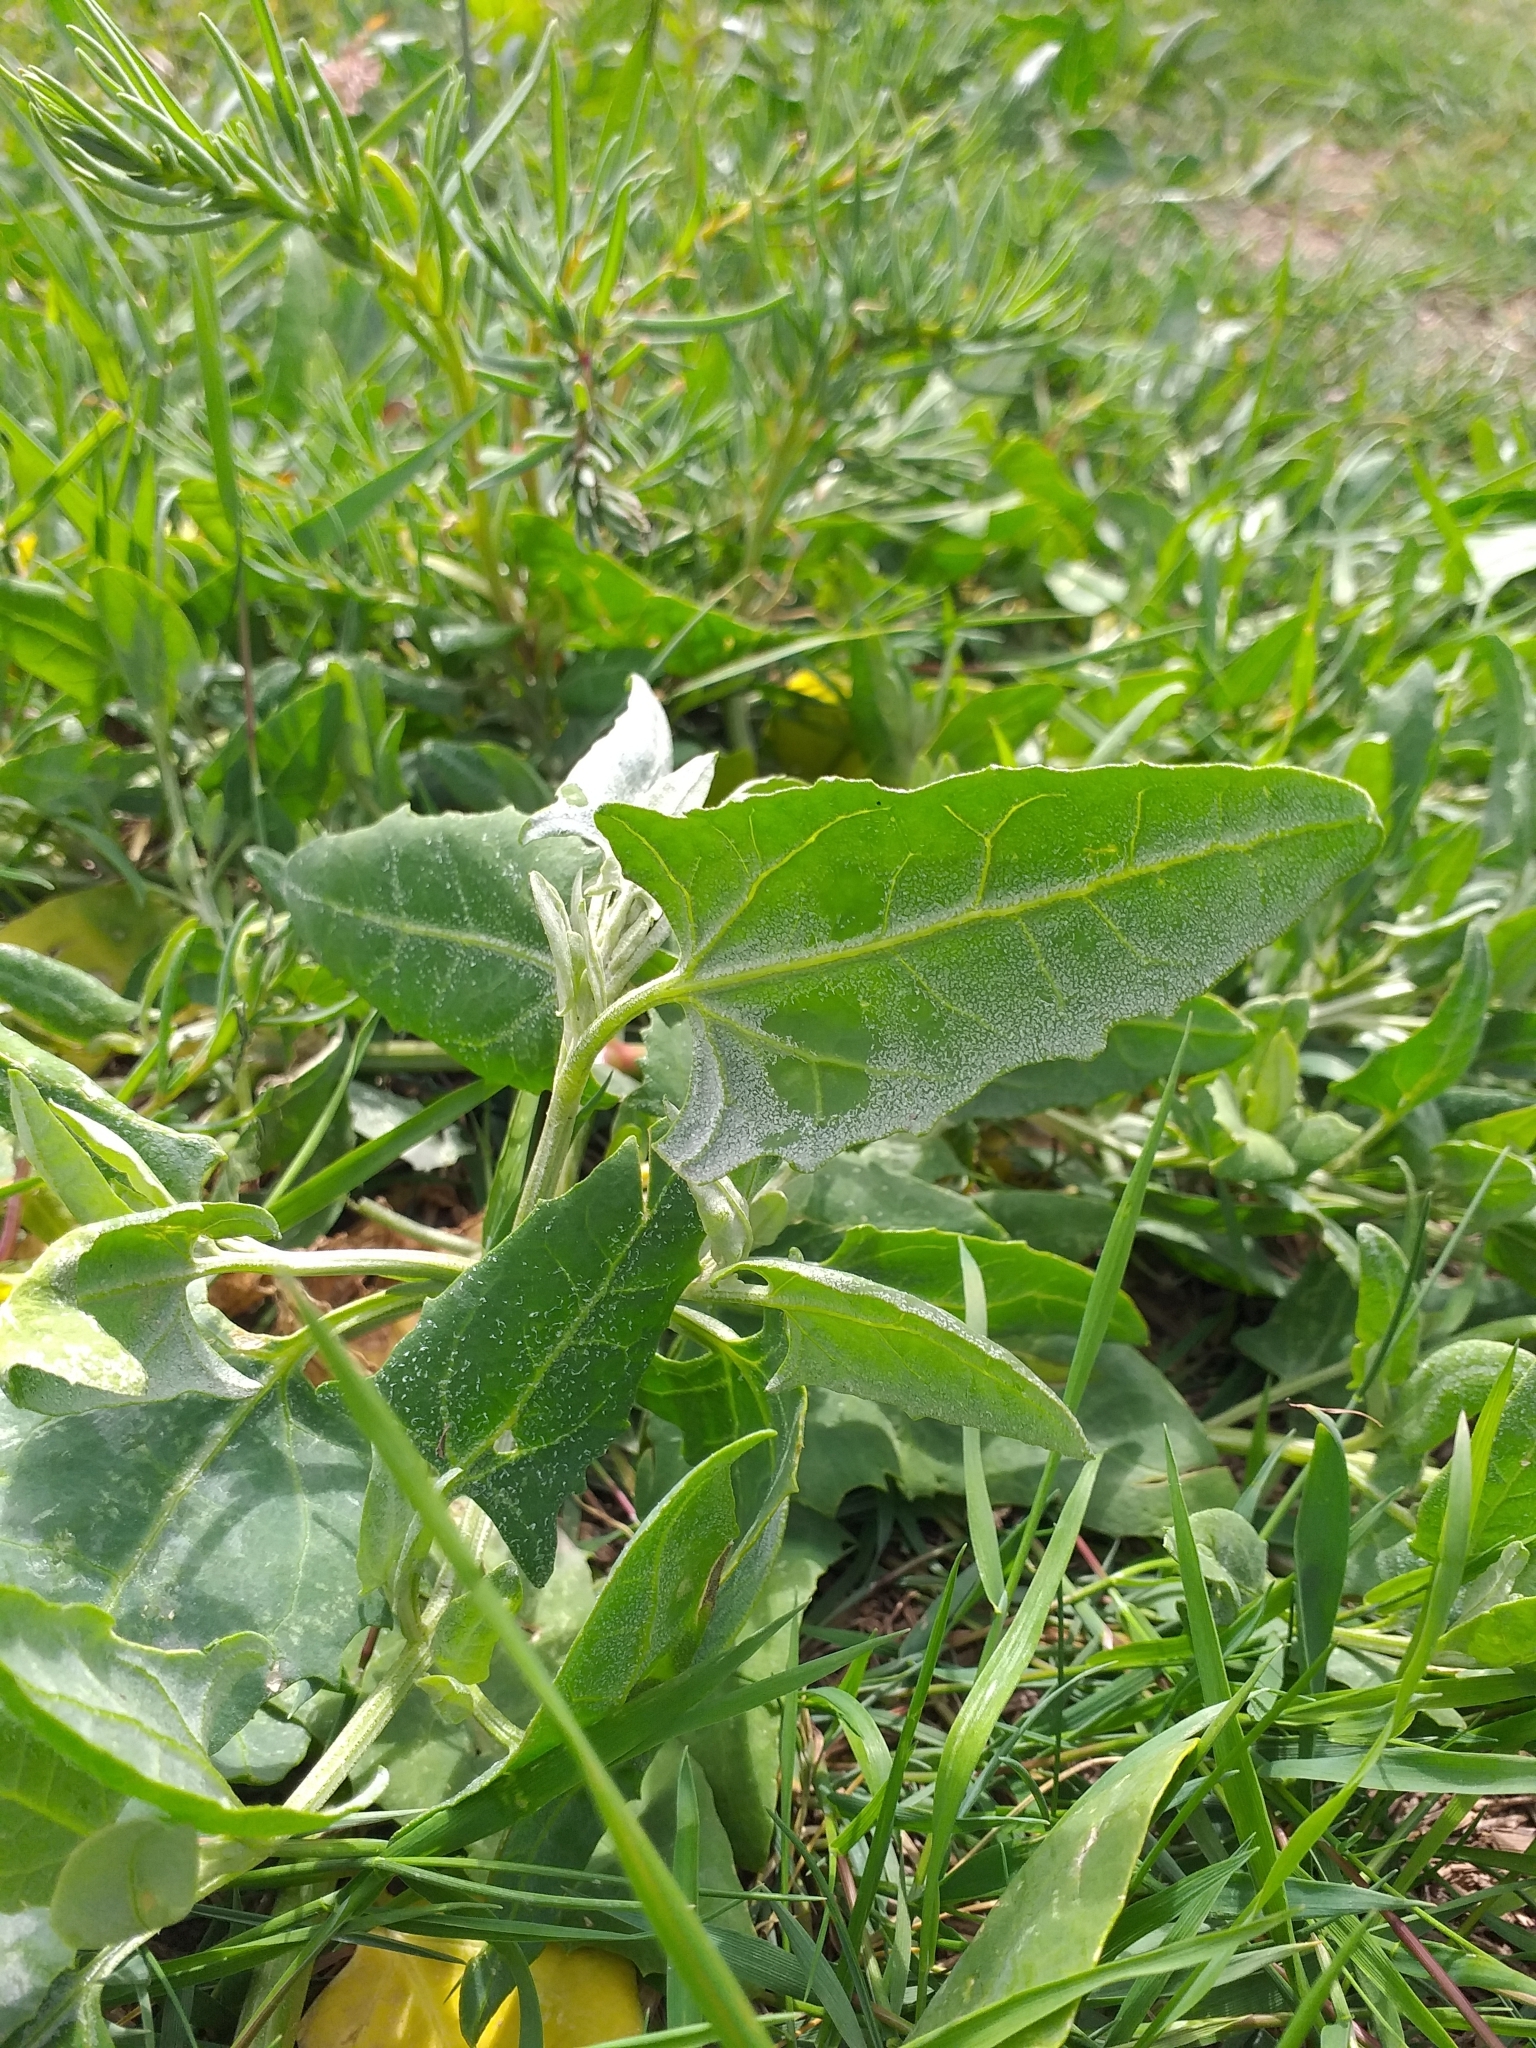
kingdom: Plantae
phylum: Tracheophyta
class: Magnoliopsida
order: Caryophyllales
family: Amaranthaceae
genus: Atriplex
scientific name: Atriplex prostrata
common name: Spear-leaved orache
